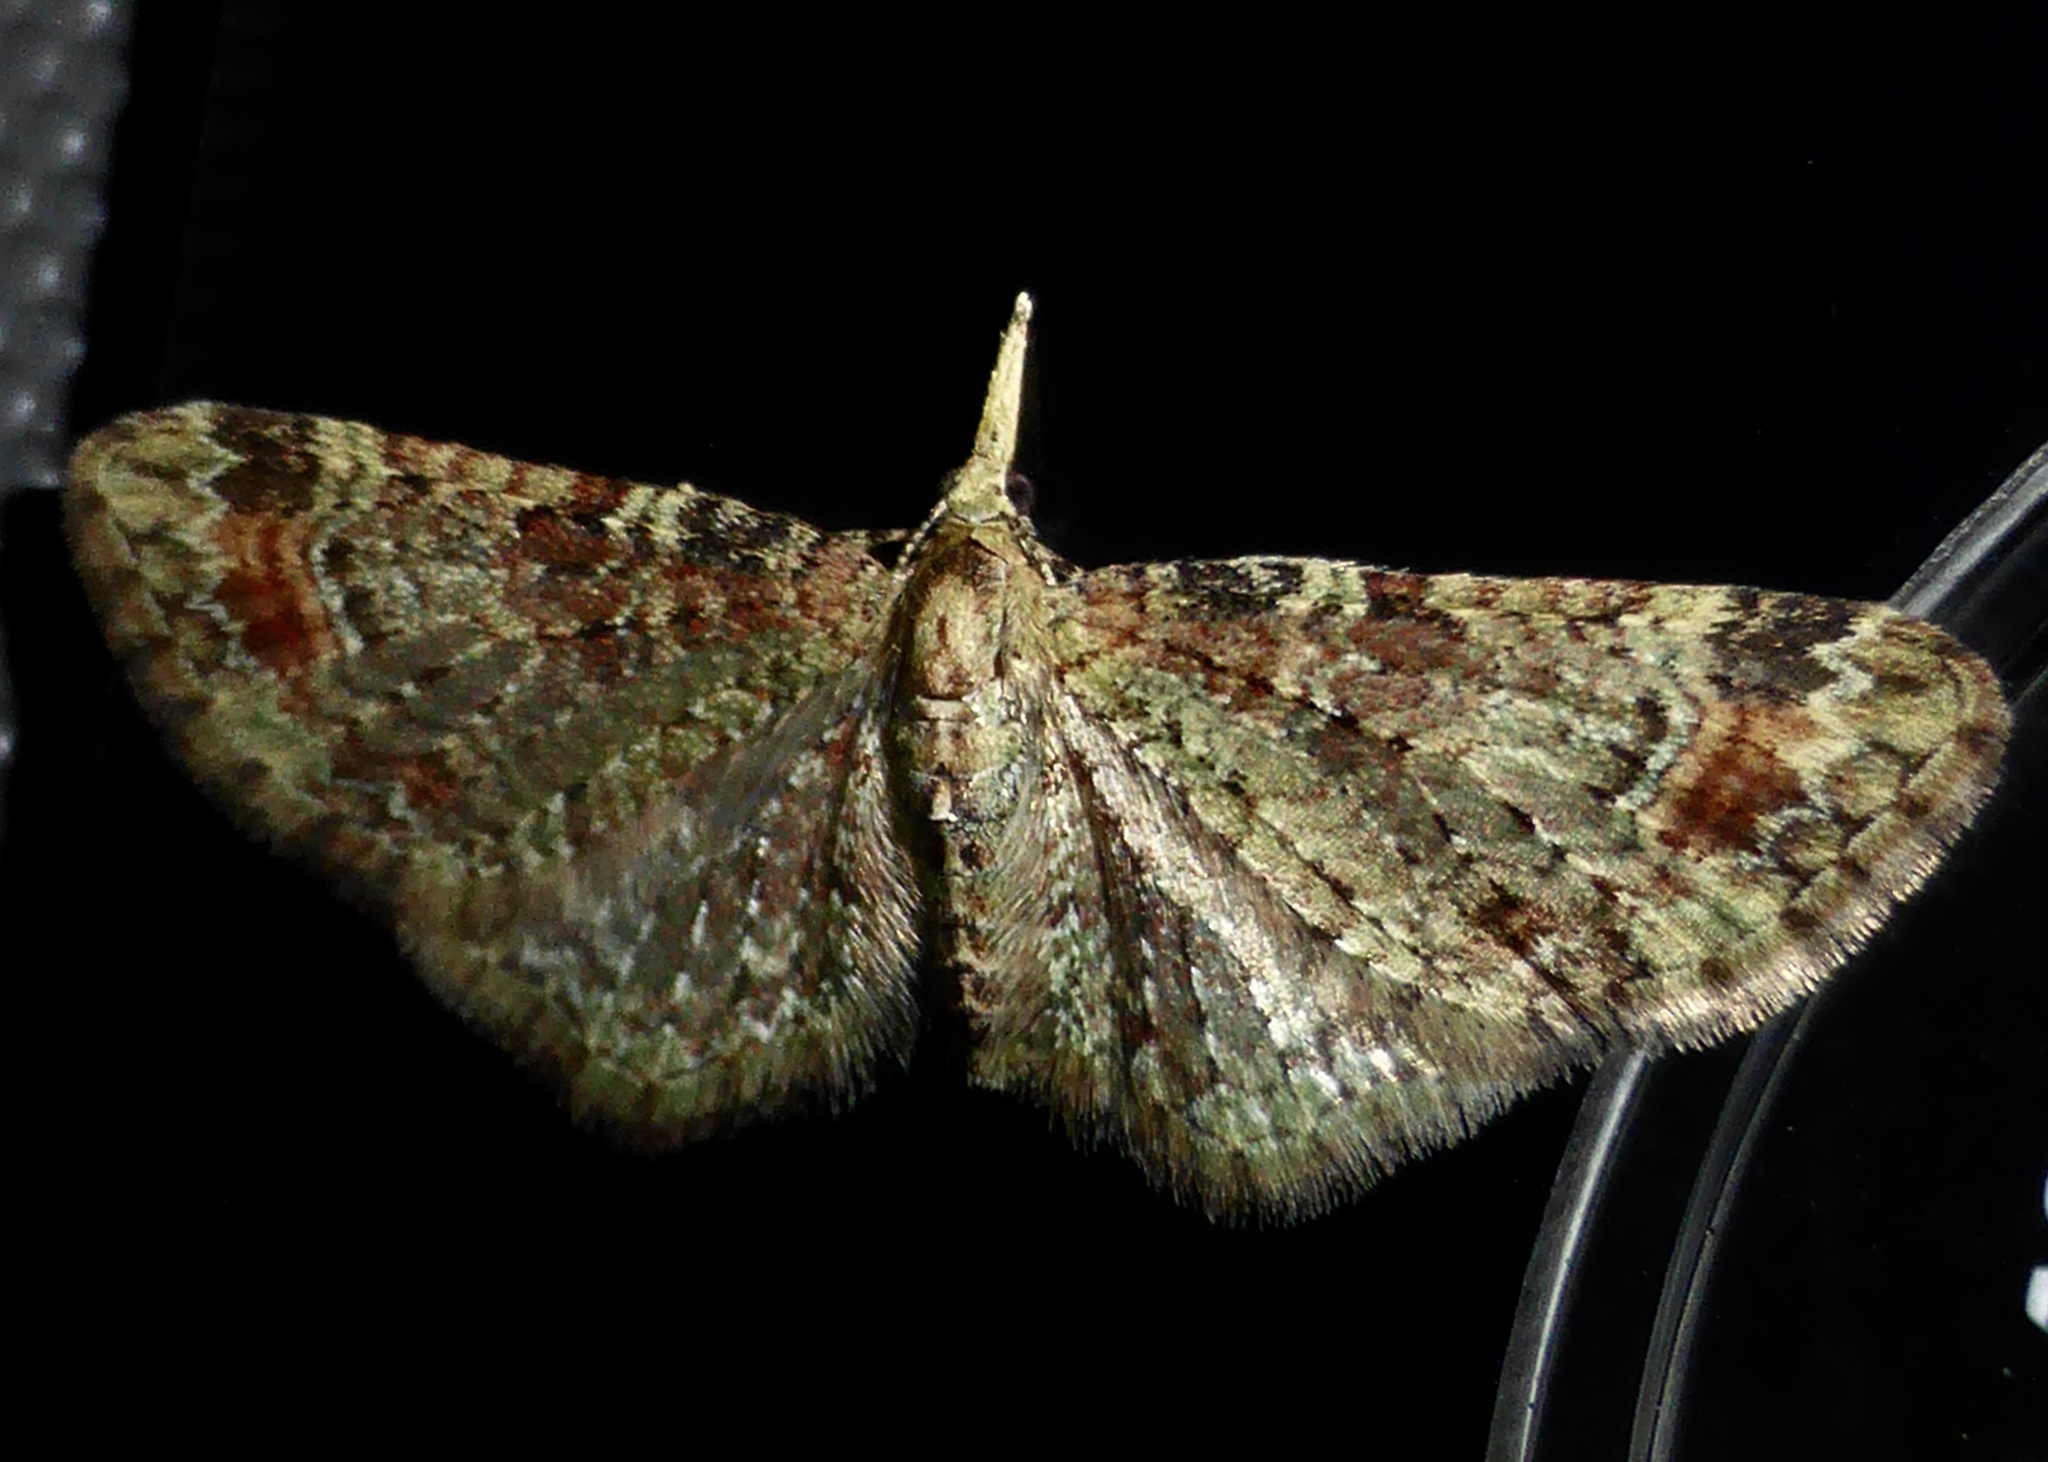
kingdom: Animalia
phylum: Arthropoda
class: Insecta
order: Lepidoptera
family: Geometridae
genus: Pasiphila
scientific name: Pasiphila plinthina
